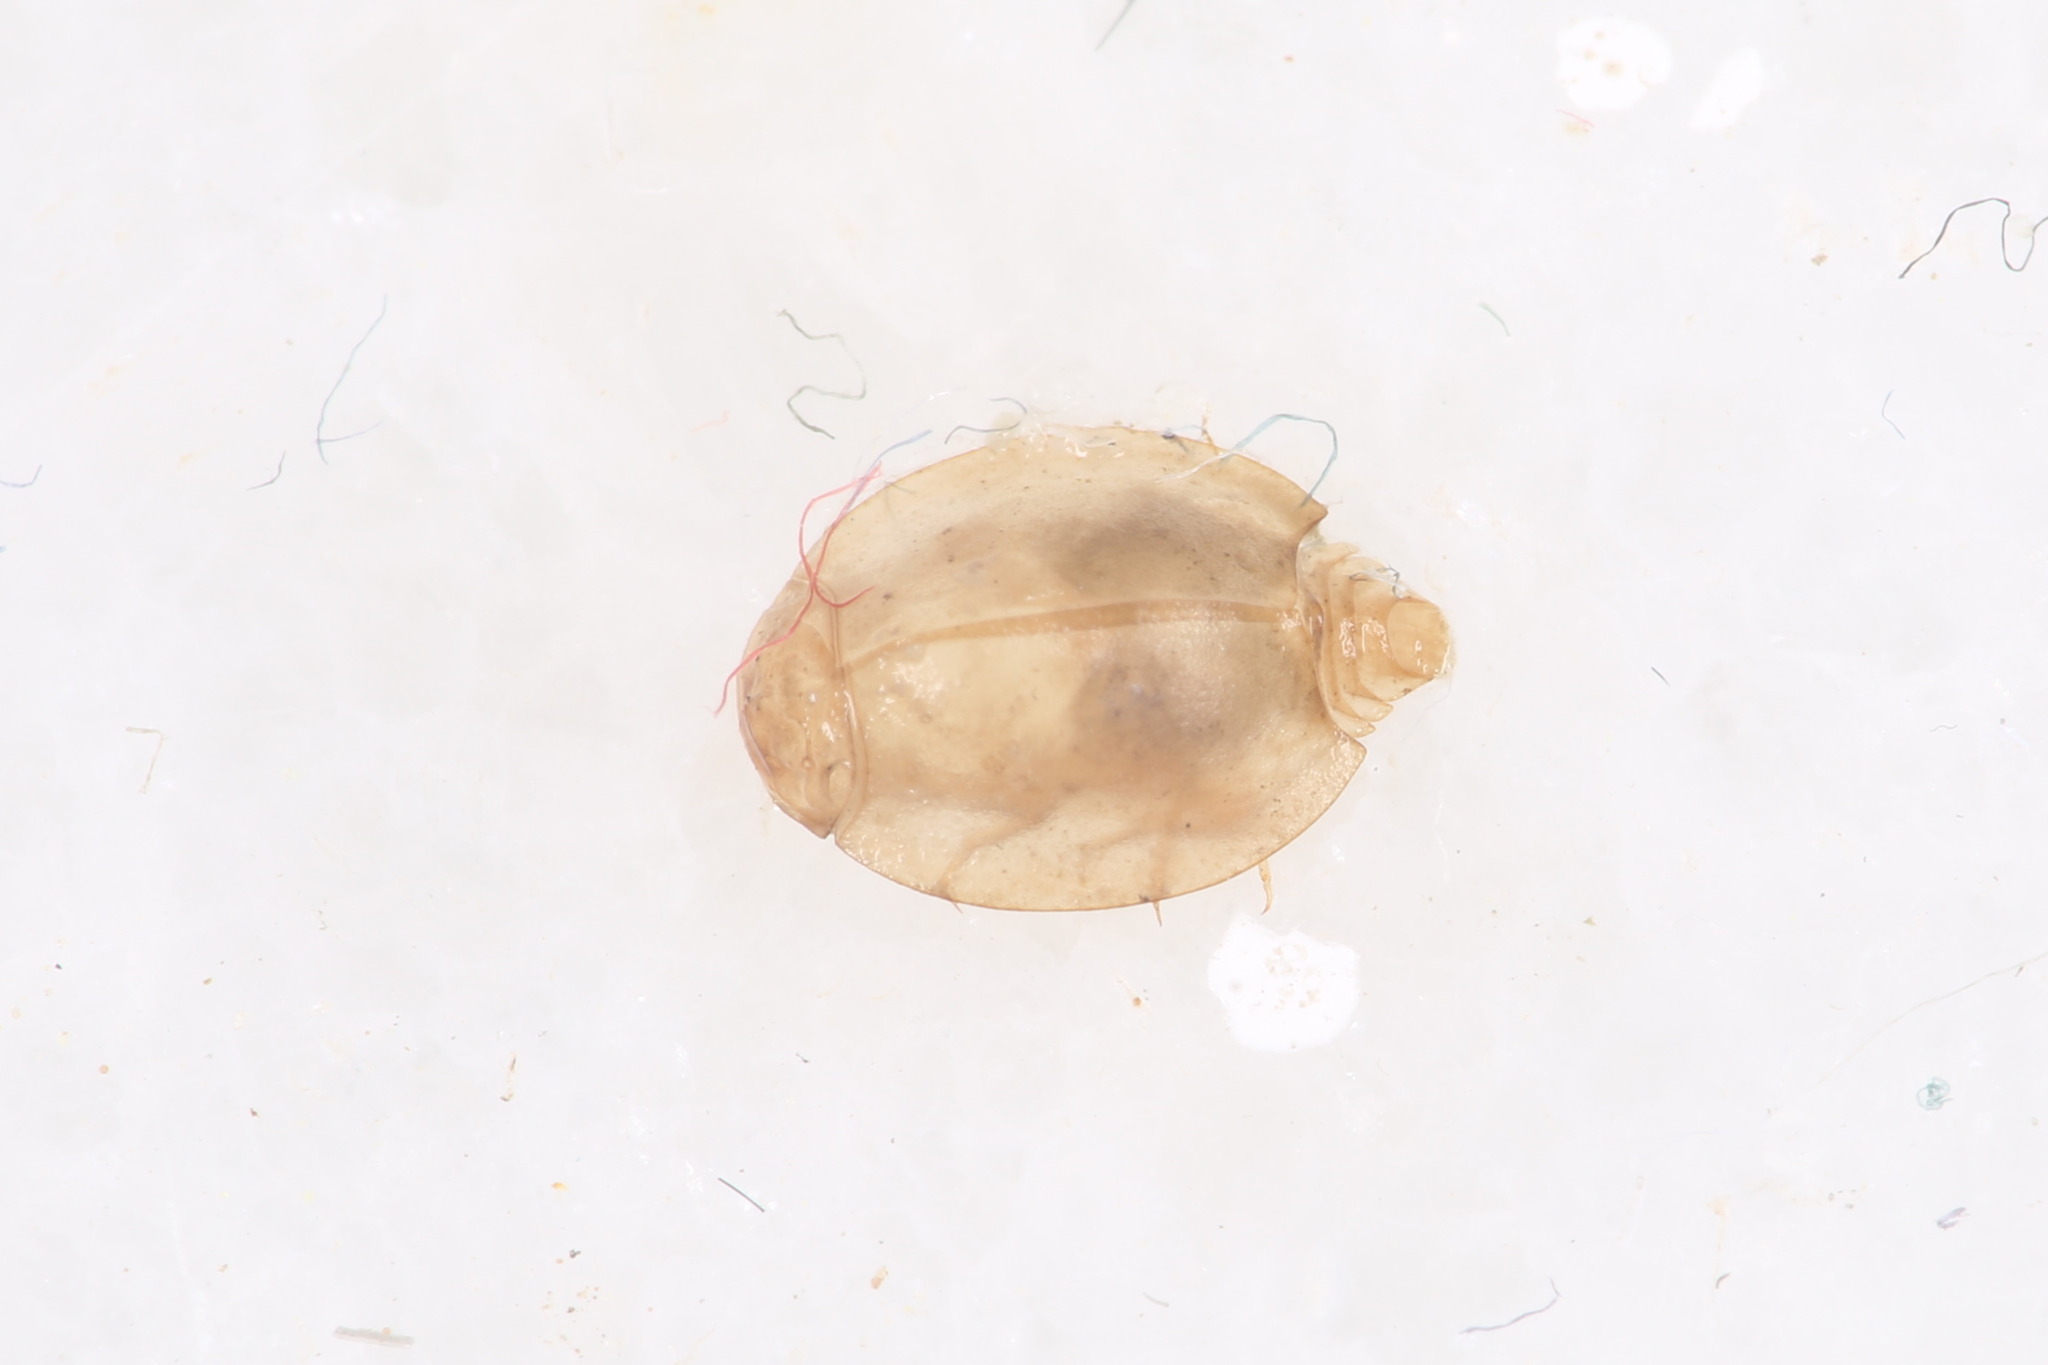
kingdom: Animalia
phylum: Arthropoda
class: Insecta
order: Ephemeroptera
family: Prosopistomatidae
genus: Prosopistoma
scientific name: Prosopistoma pennigerum
